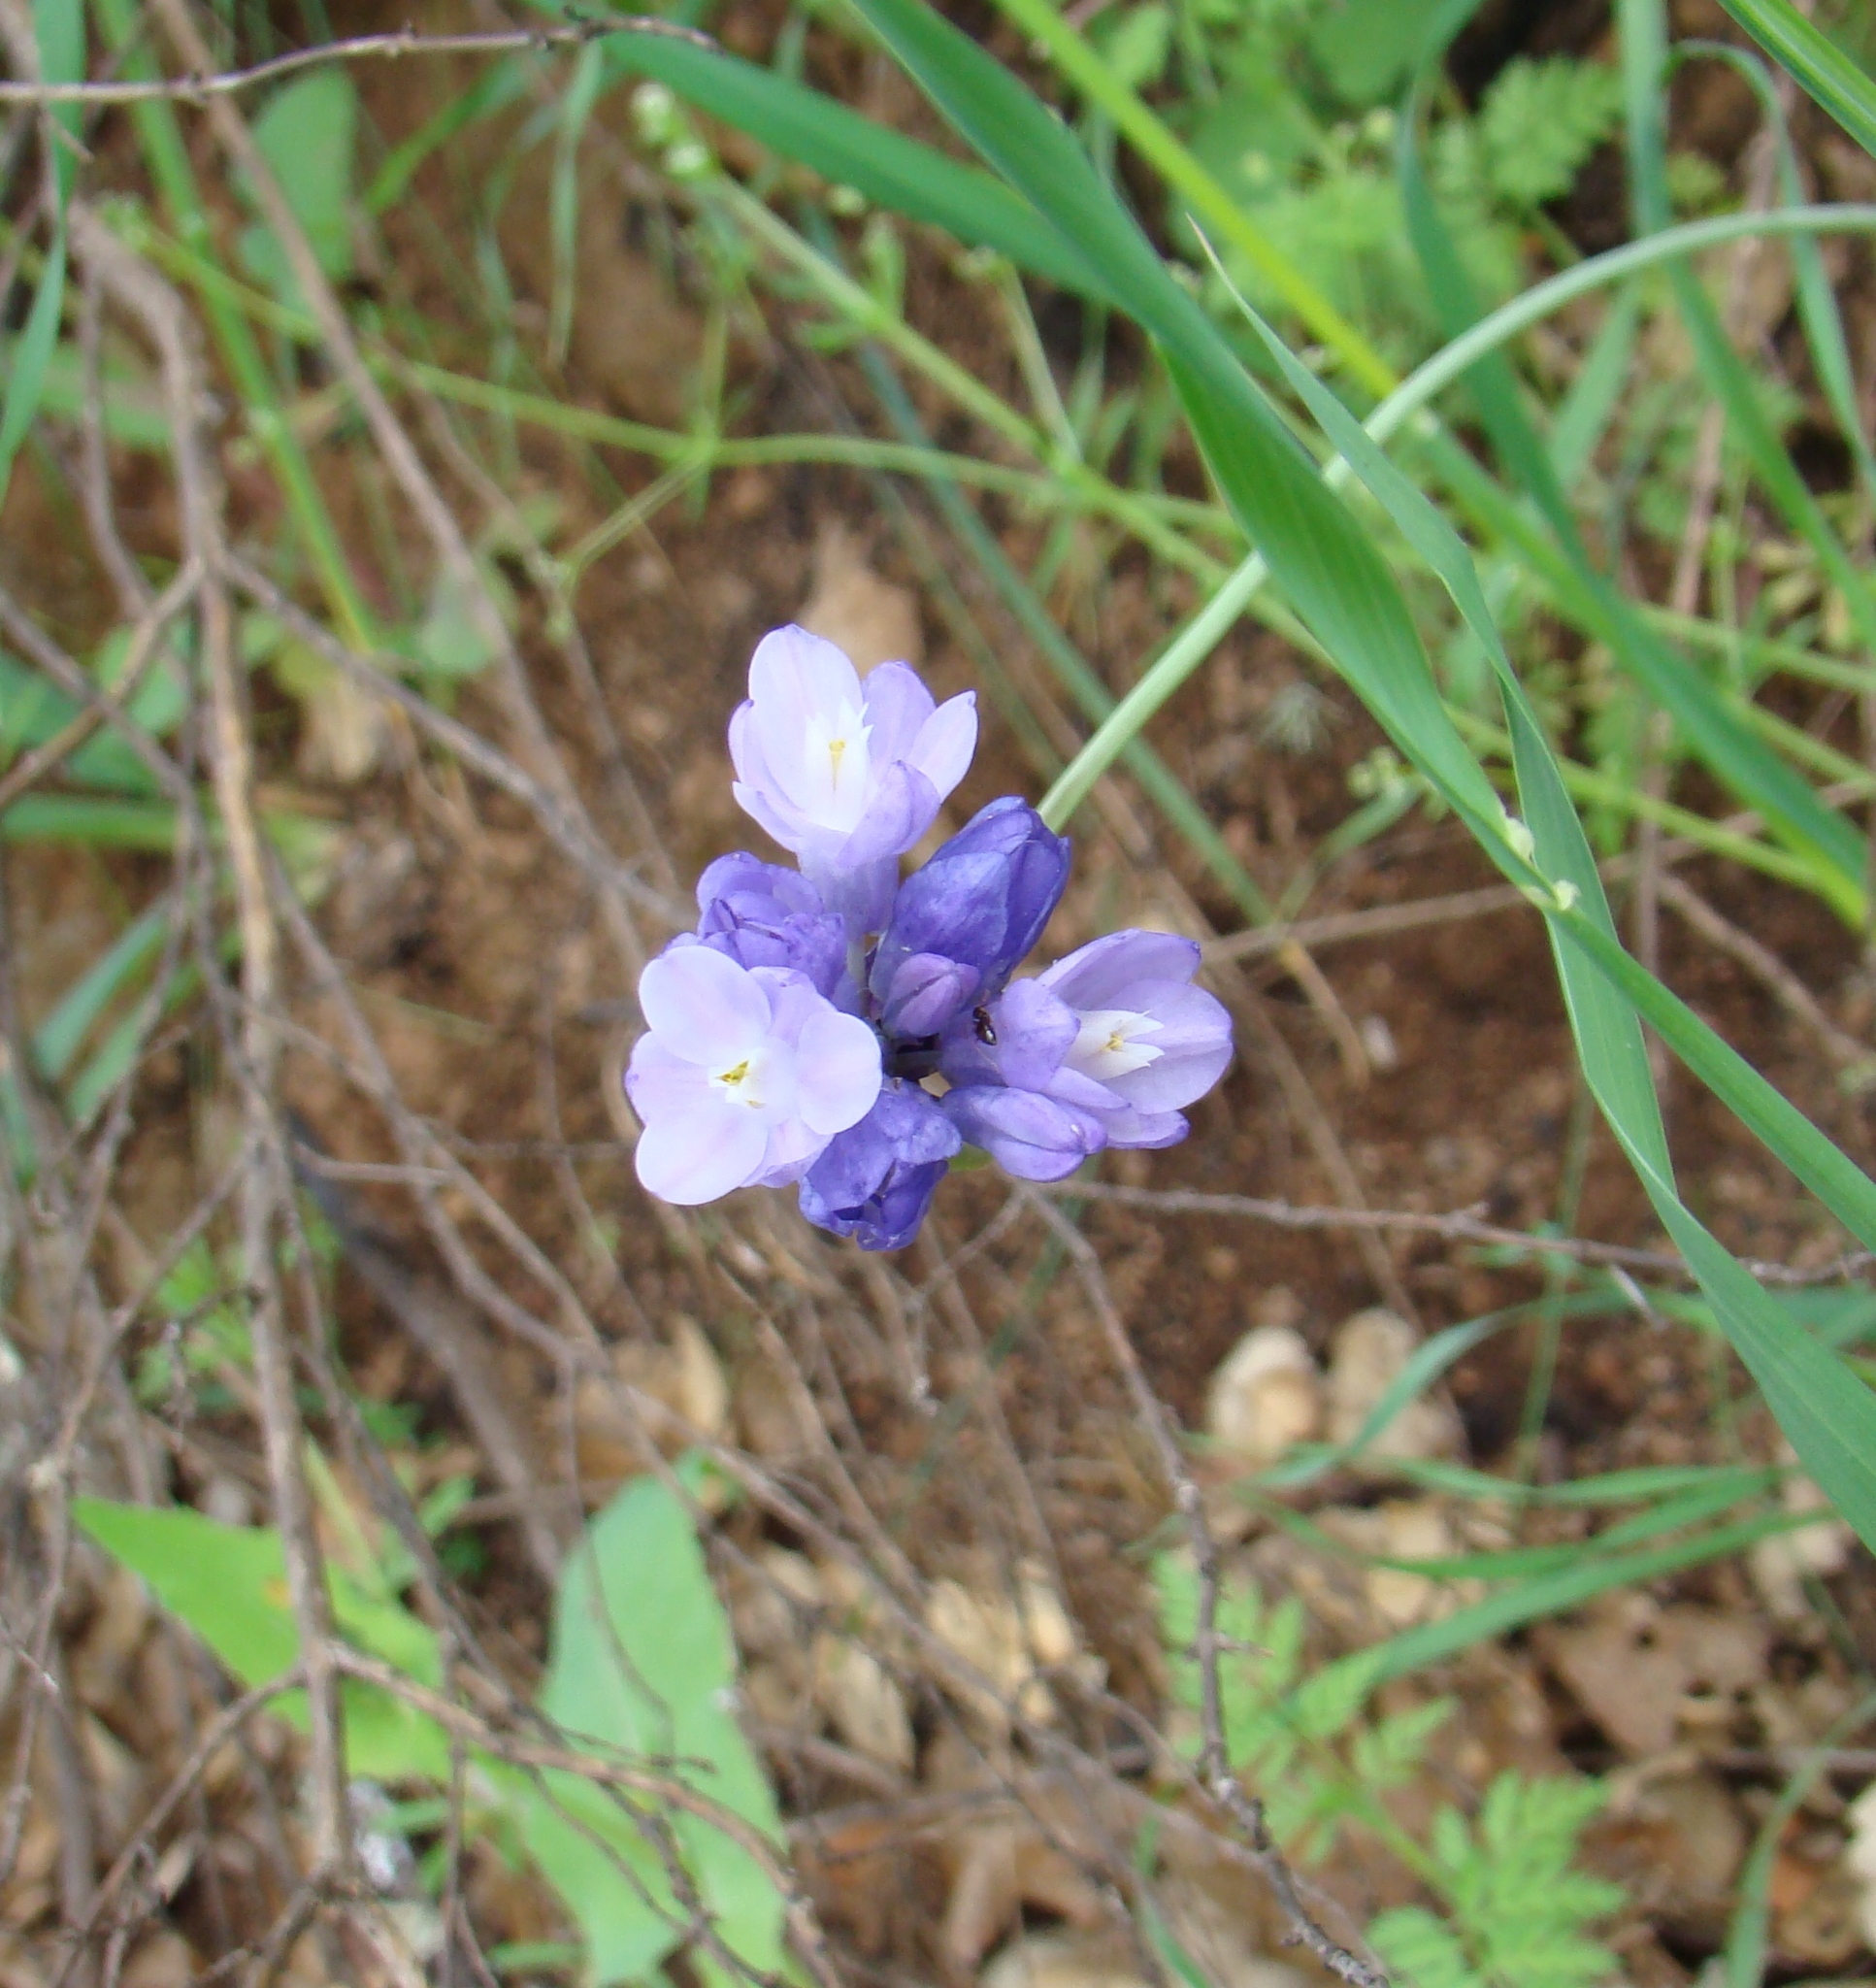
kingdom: Plantae
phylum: Tracheophyta
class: Liliopsida
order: Asparagales
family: Asparagaceae
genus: Dipterostemon
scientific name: Dipterostemon capitatus
